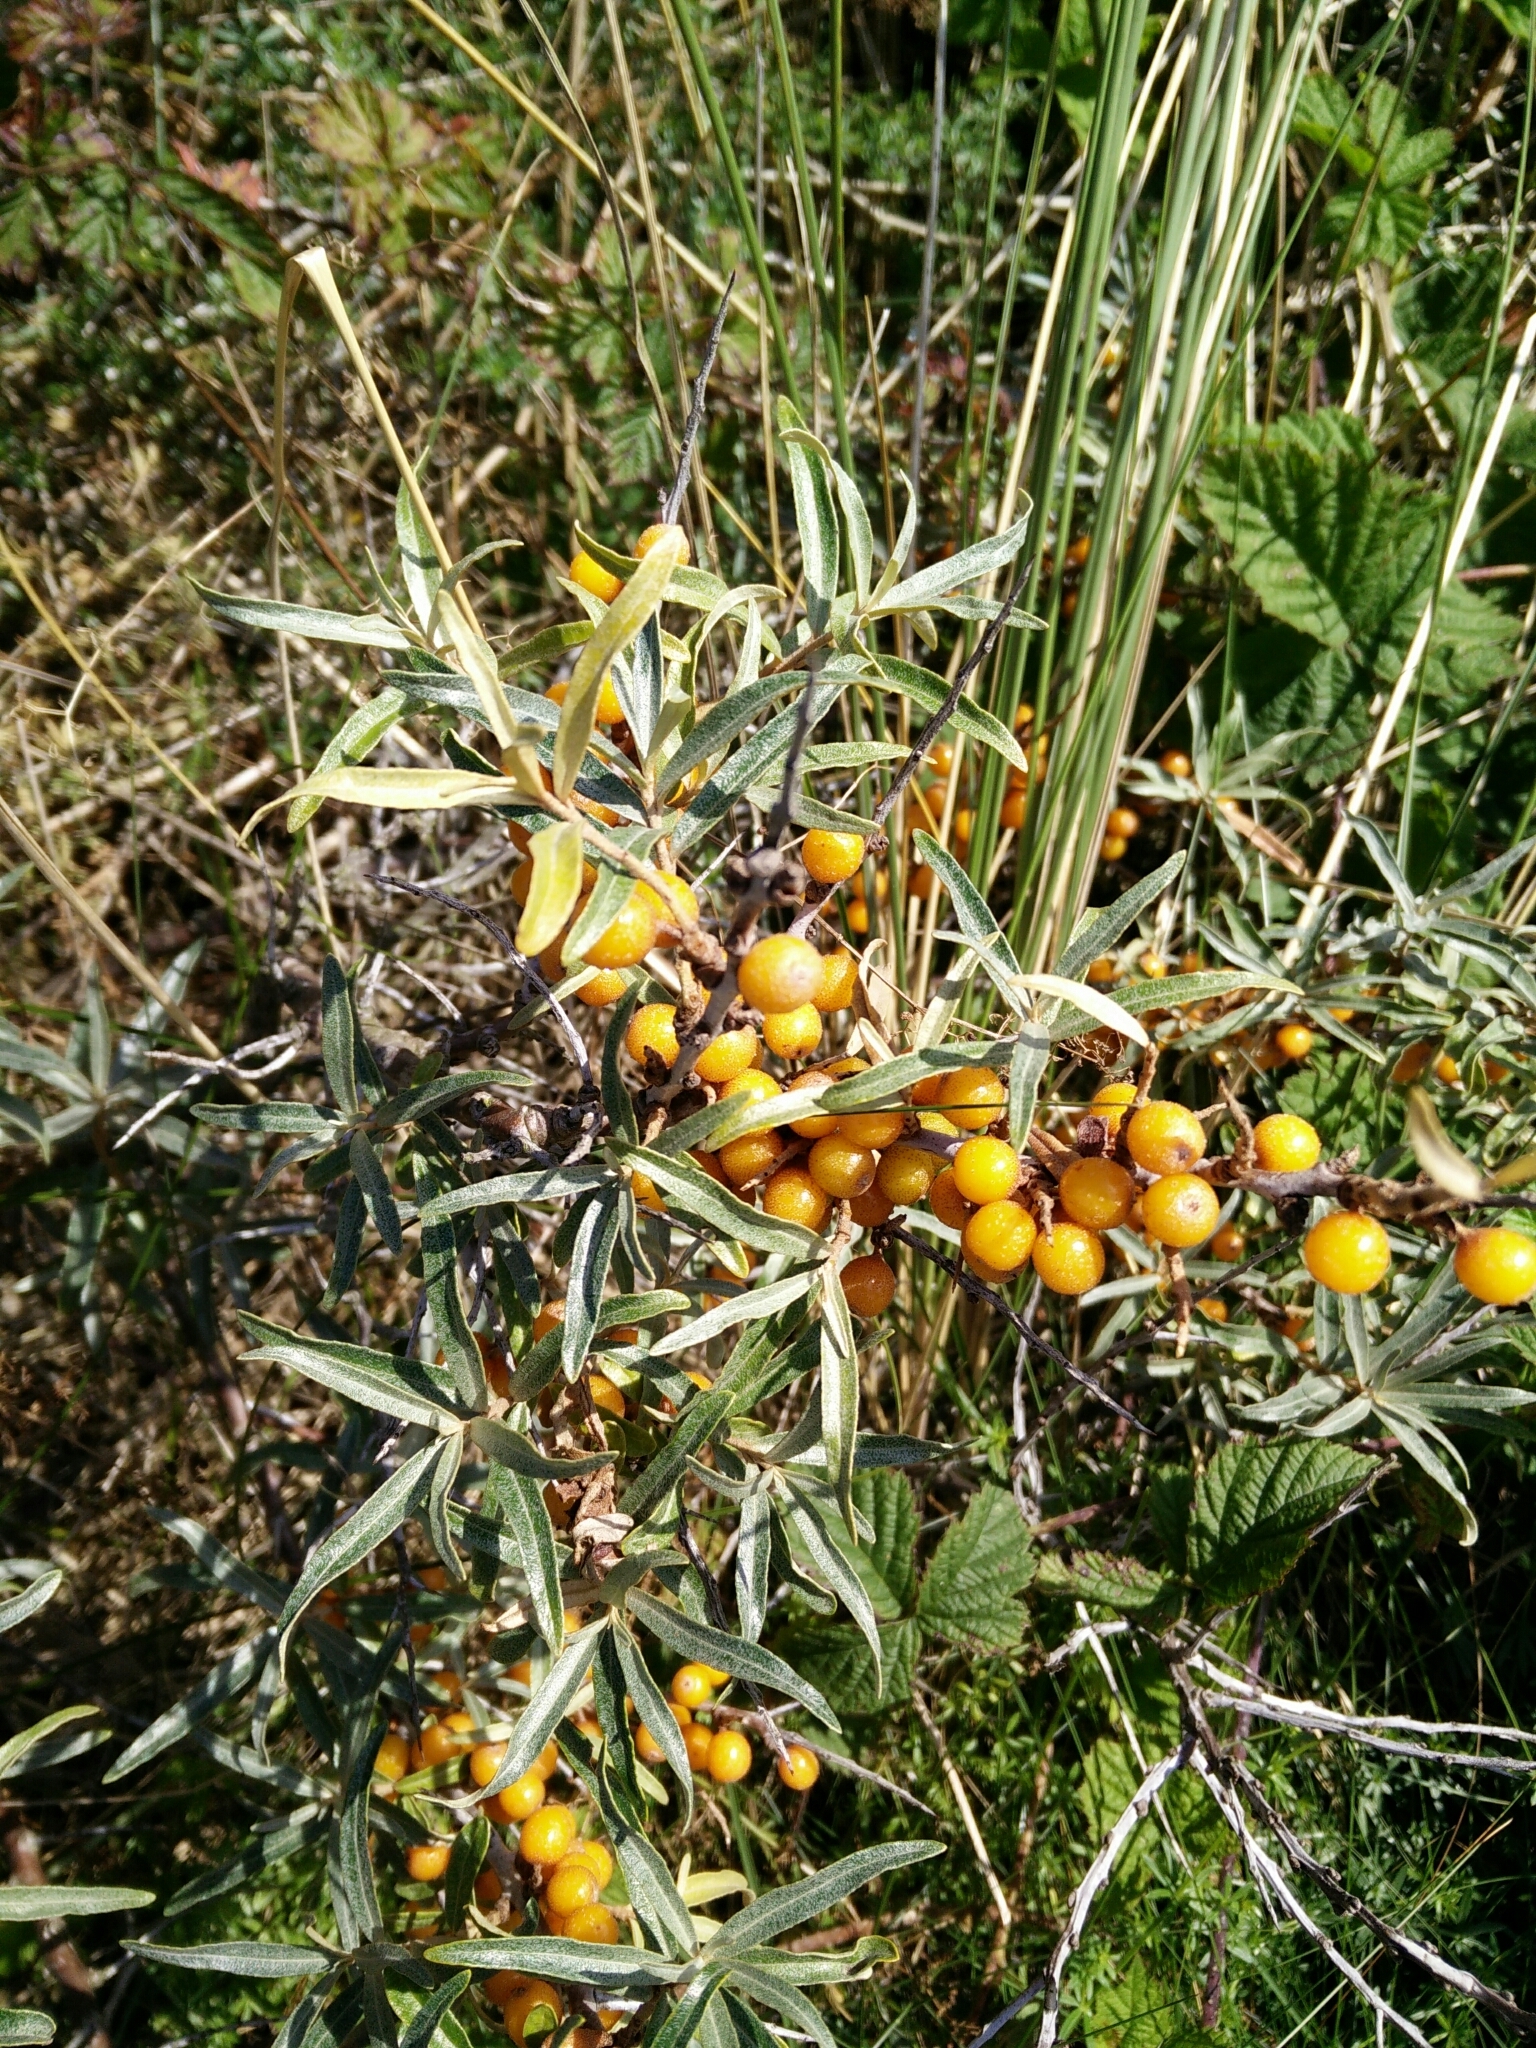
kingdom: Plantae
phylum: Tracheophyta
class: Magnoliopsida
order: Rosales
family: Elaeagnaceae
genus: Hippophae
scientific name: Hippophae rhamnoides
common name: Sea-buckthorn
